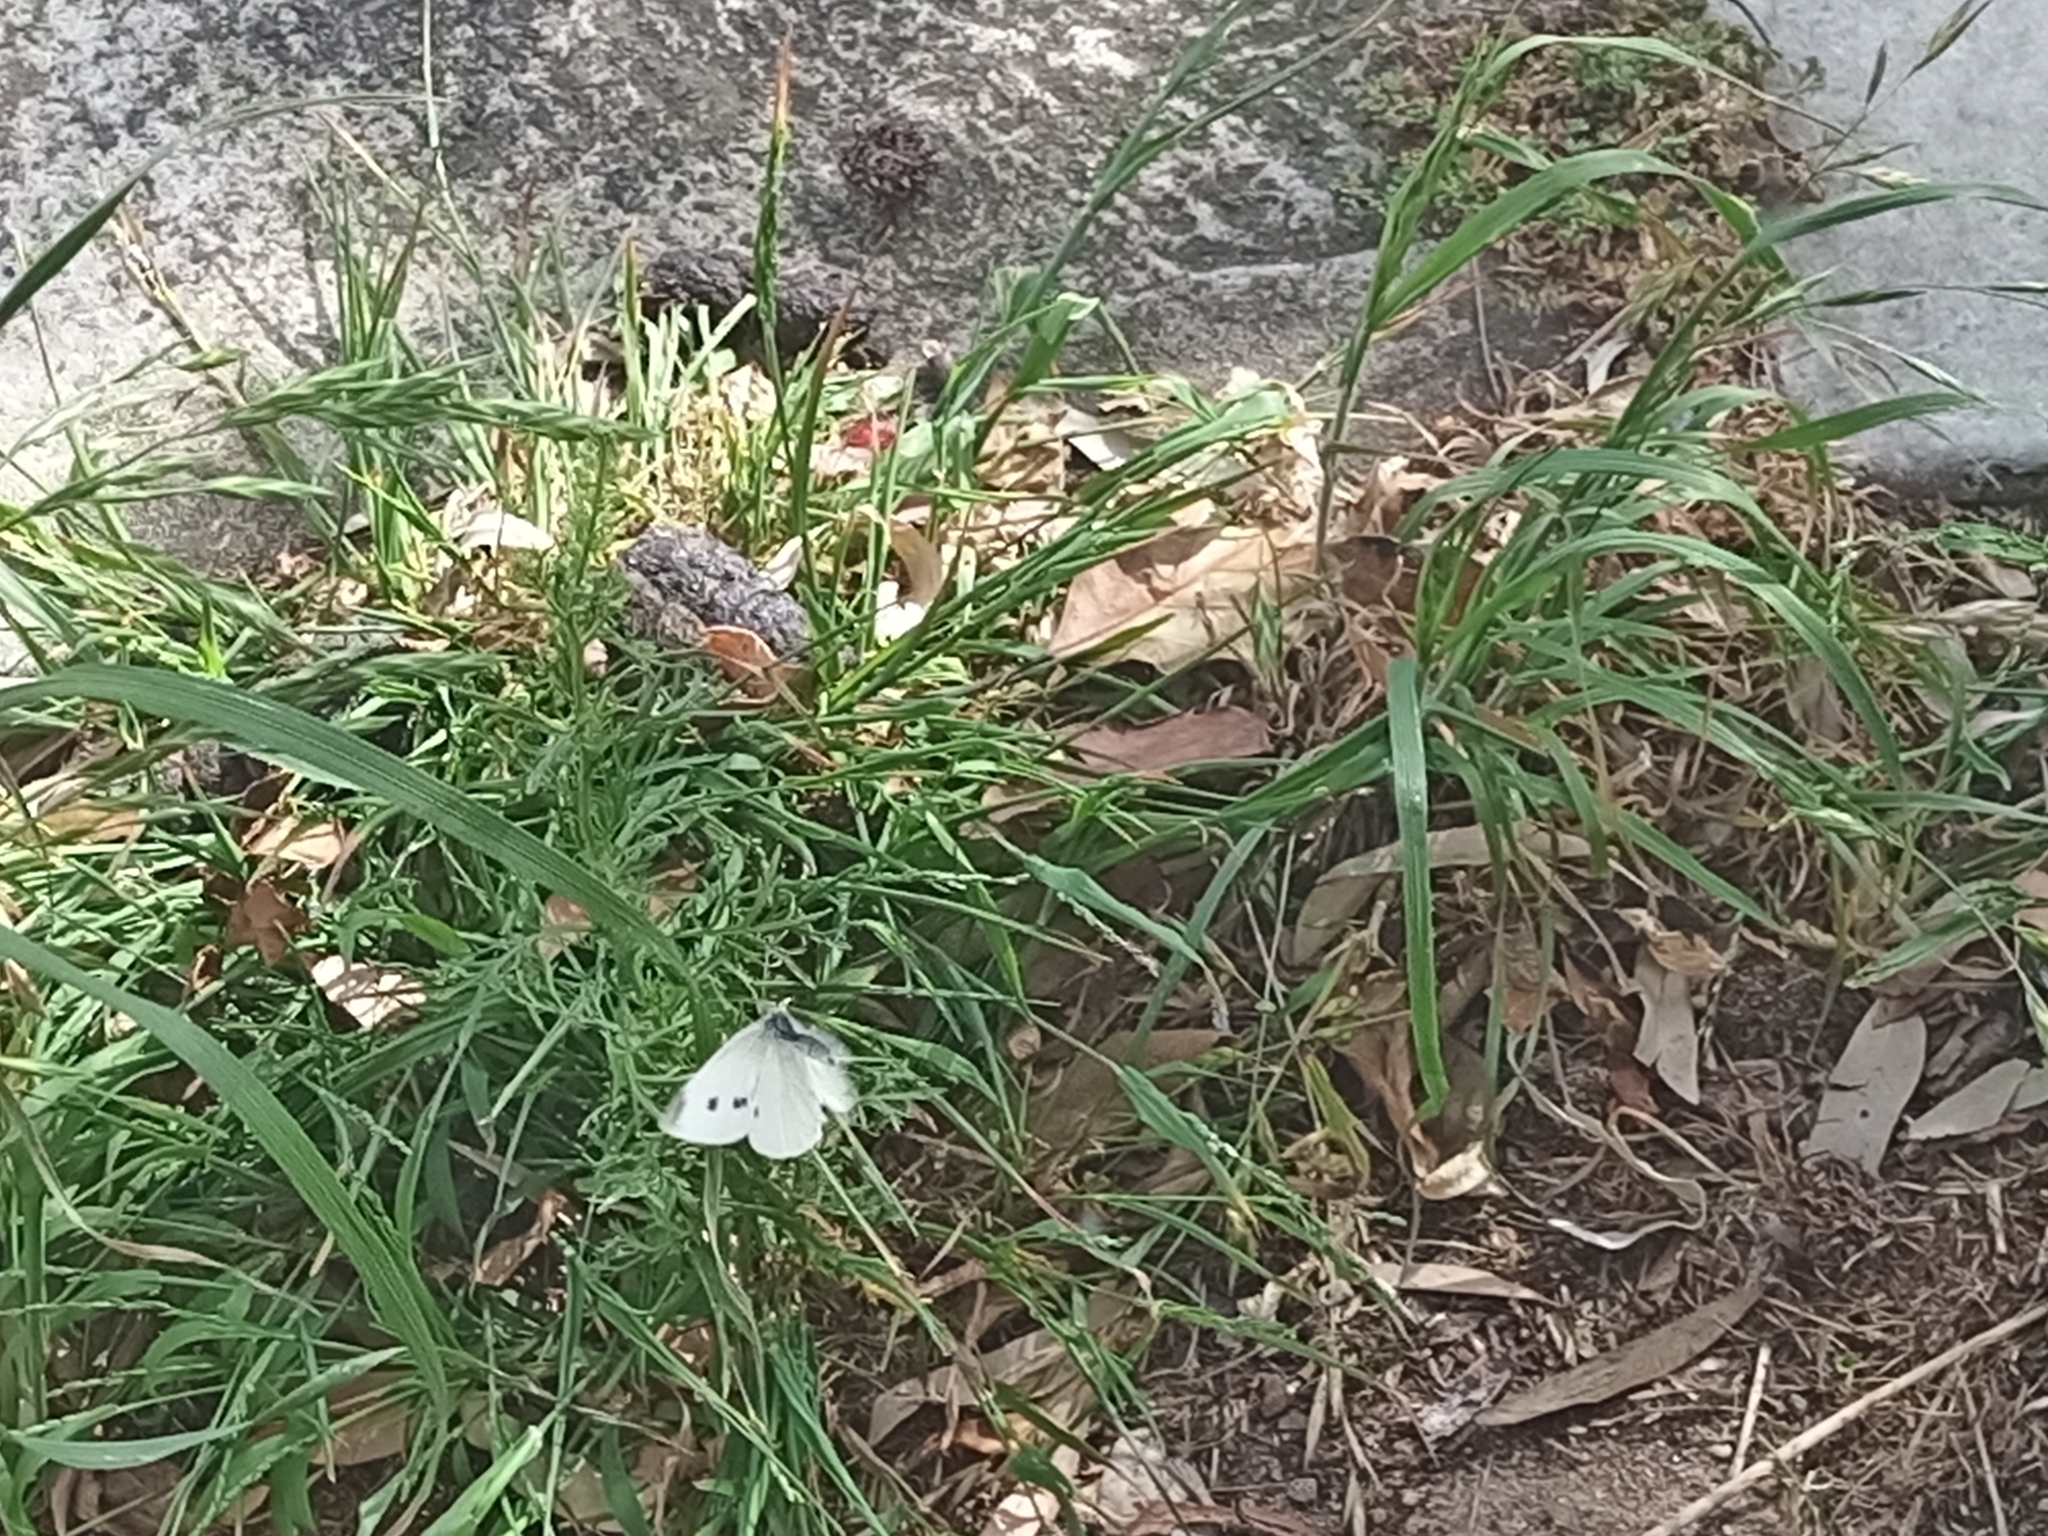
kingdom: Animalia
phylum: Arthropoda
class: Insecta
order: Lepidoptera
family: Pieridae
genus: Pieris
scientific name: Pieris rapae
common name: Small white
